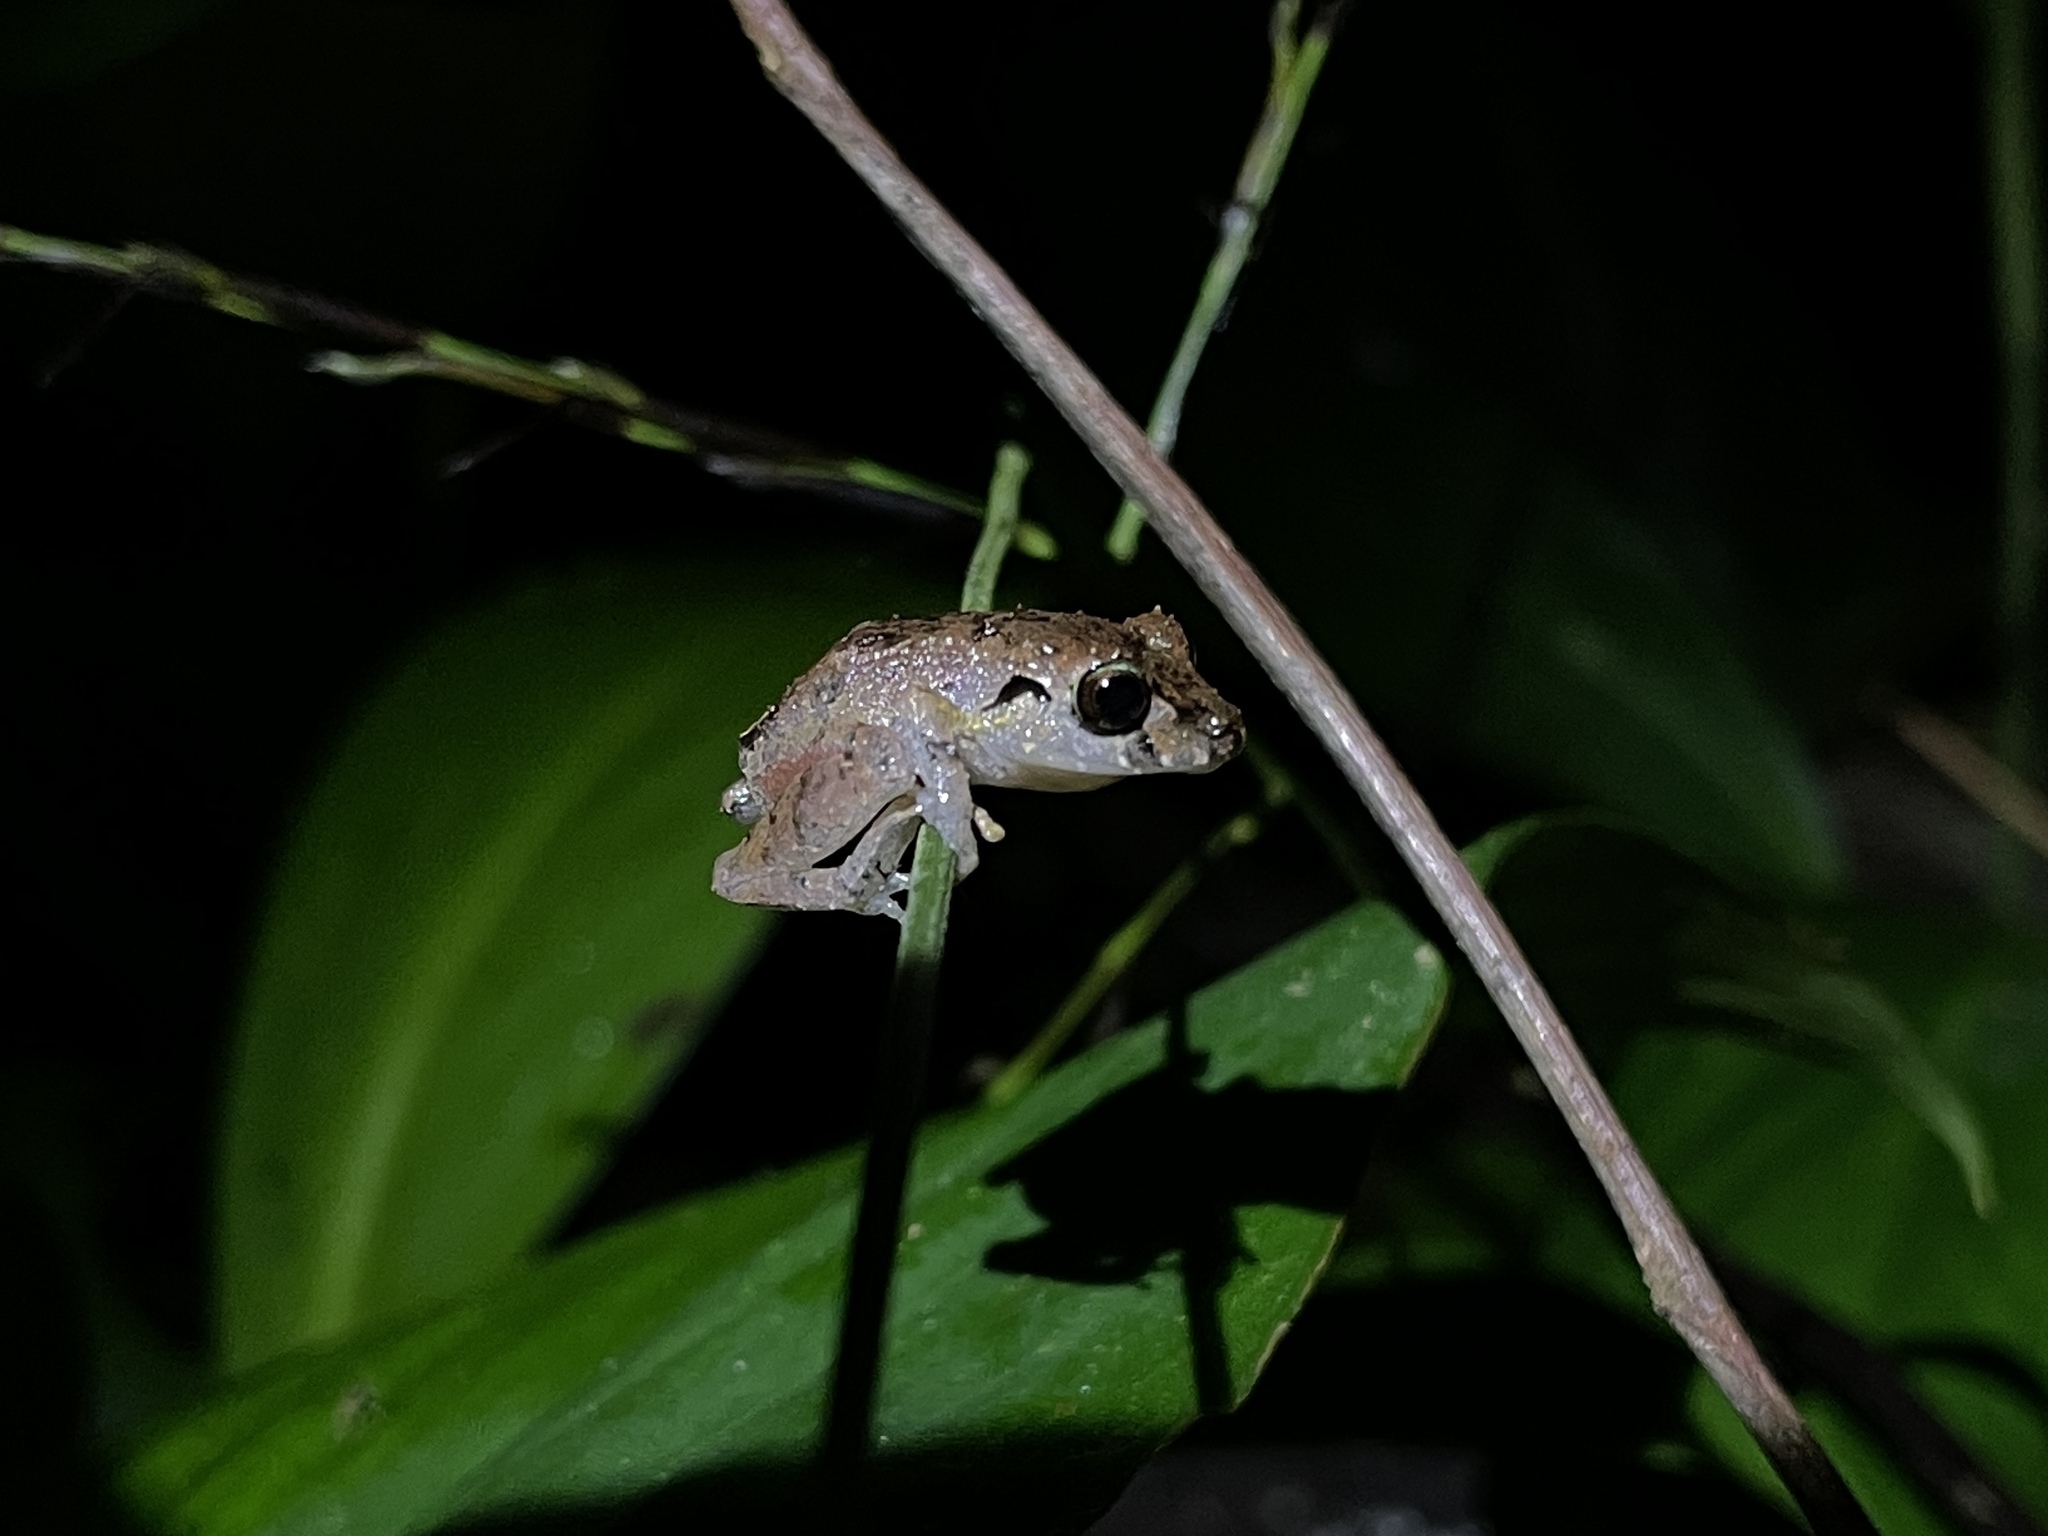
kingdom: Animalia
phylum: Chordata
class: Amphibia
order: Anura
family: Craugastoridae
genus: Pristimantis
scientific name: Pristimantis urichi
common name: Lesser antilles robber frog
